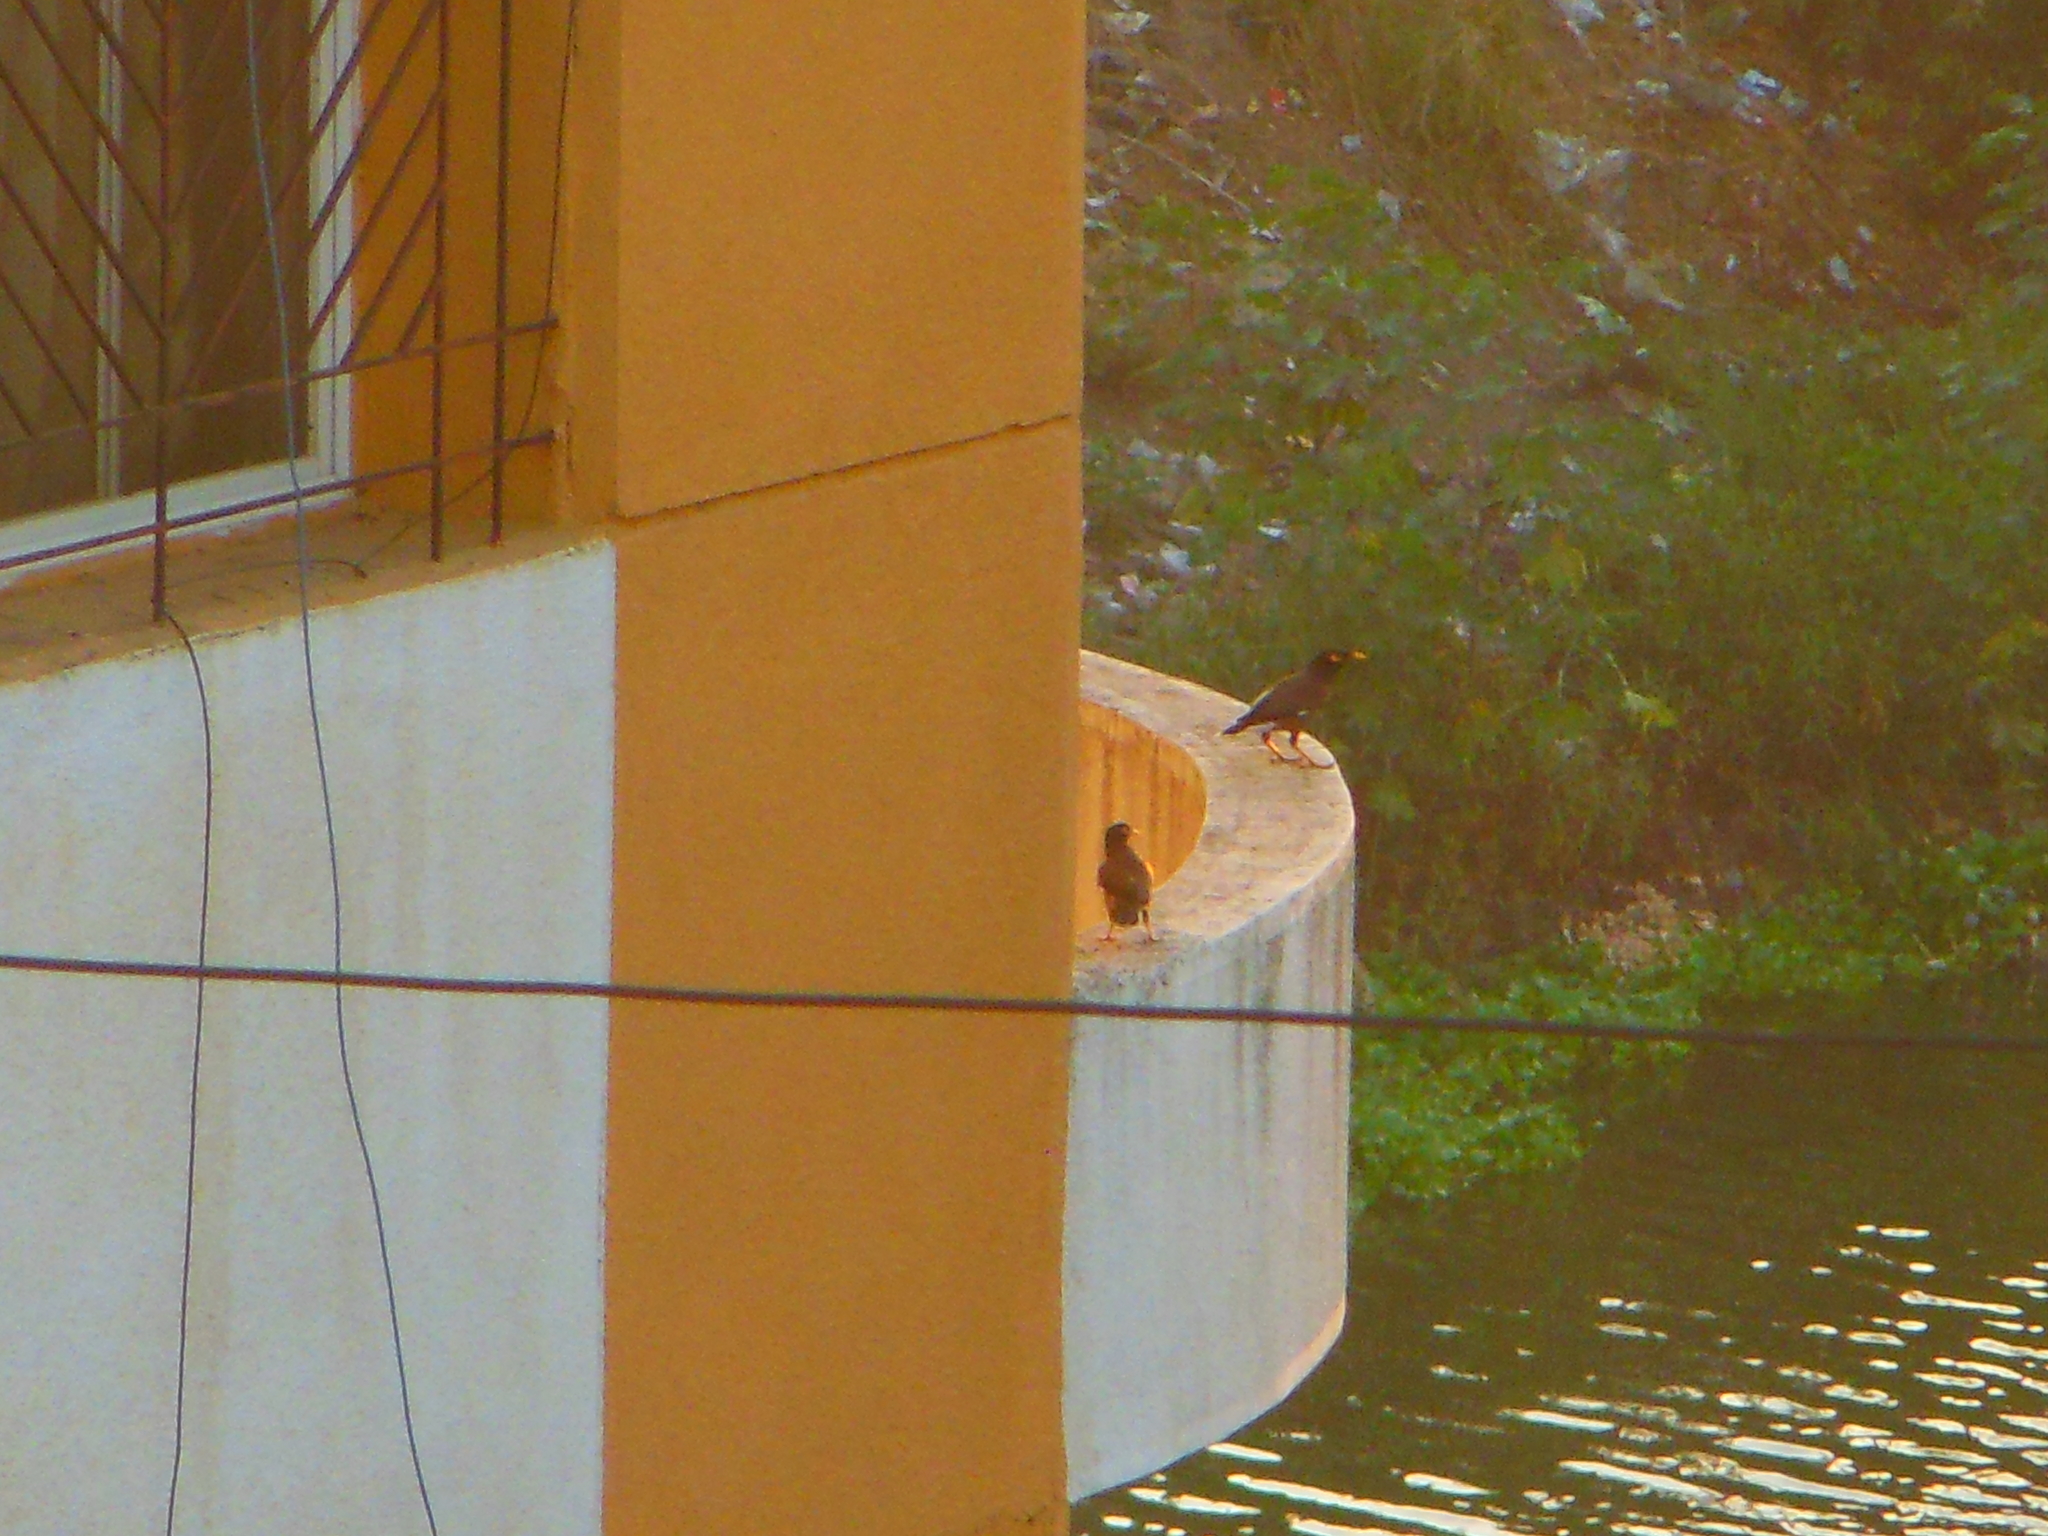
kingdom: Animalia
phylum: Chordata
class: Aves
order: Passeriformes
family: Sturnidae
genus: Acridotheres
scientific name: Acridotheres tristis
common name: Common myna
